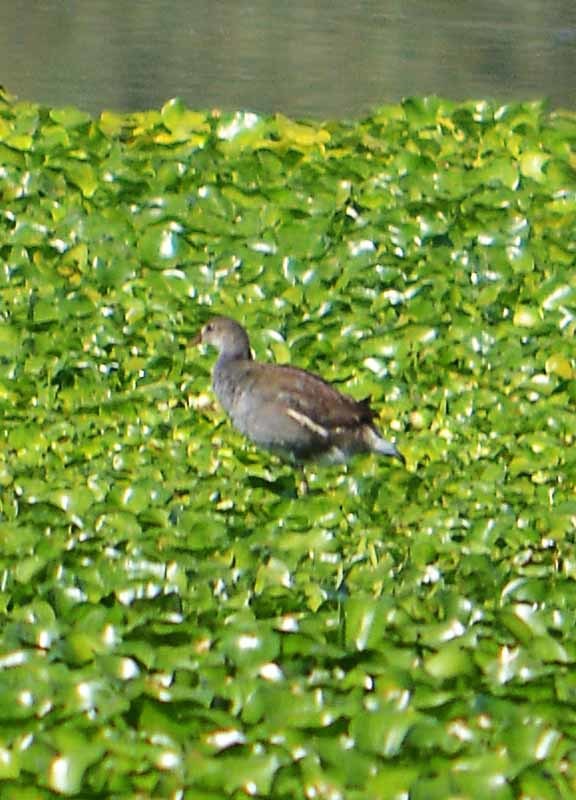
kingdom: Animalia
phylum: Chordata
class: Aves
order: Gruiformes
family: Rallidae
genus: Gallinula
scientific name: Gallinula chloropus
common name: Common moorhen
